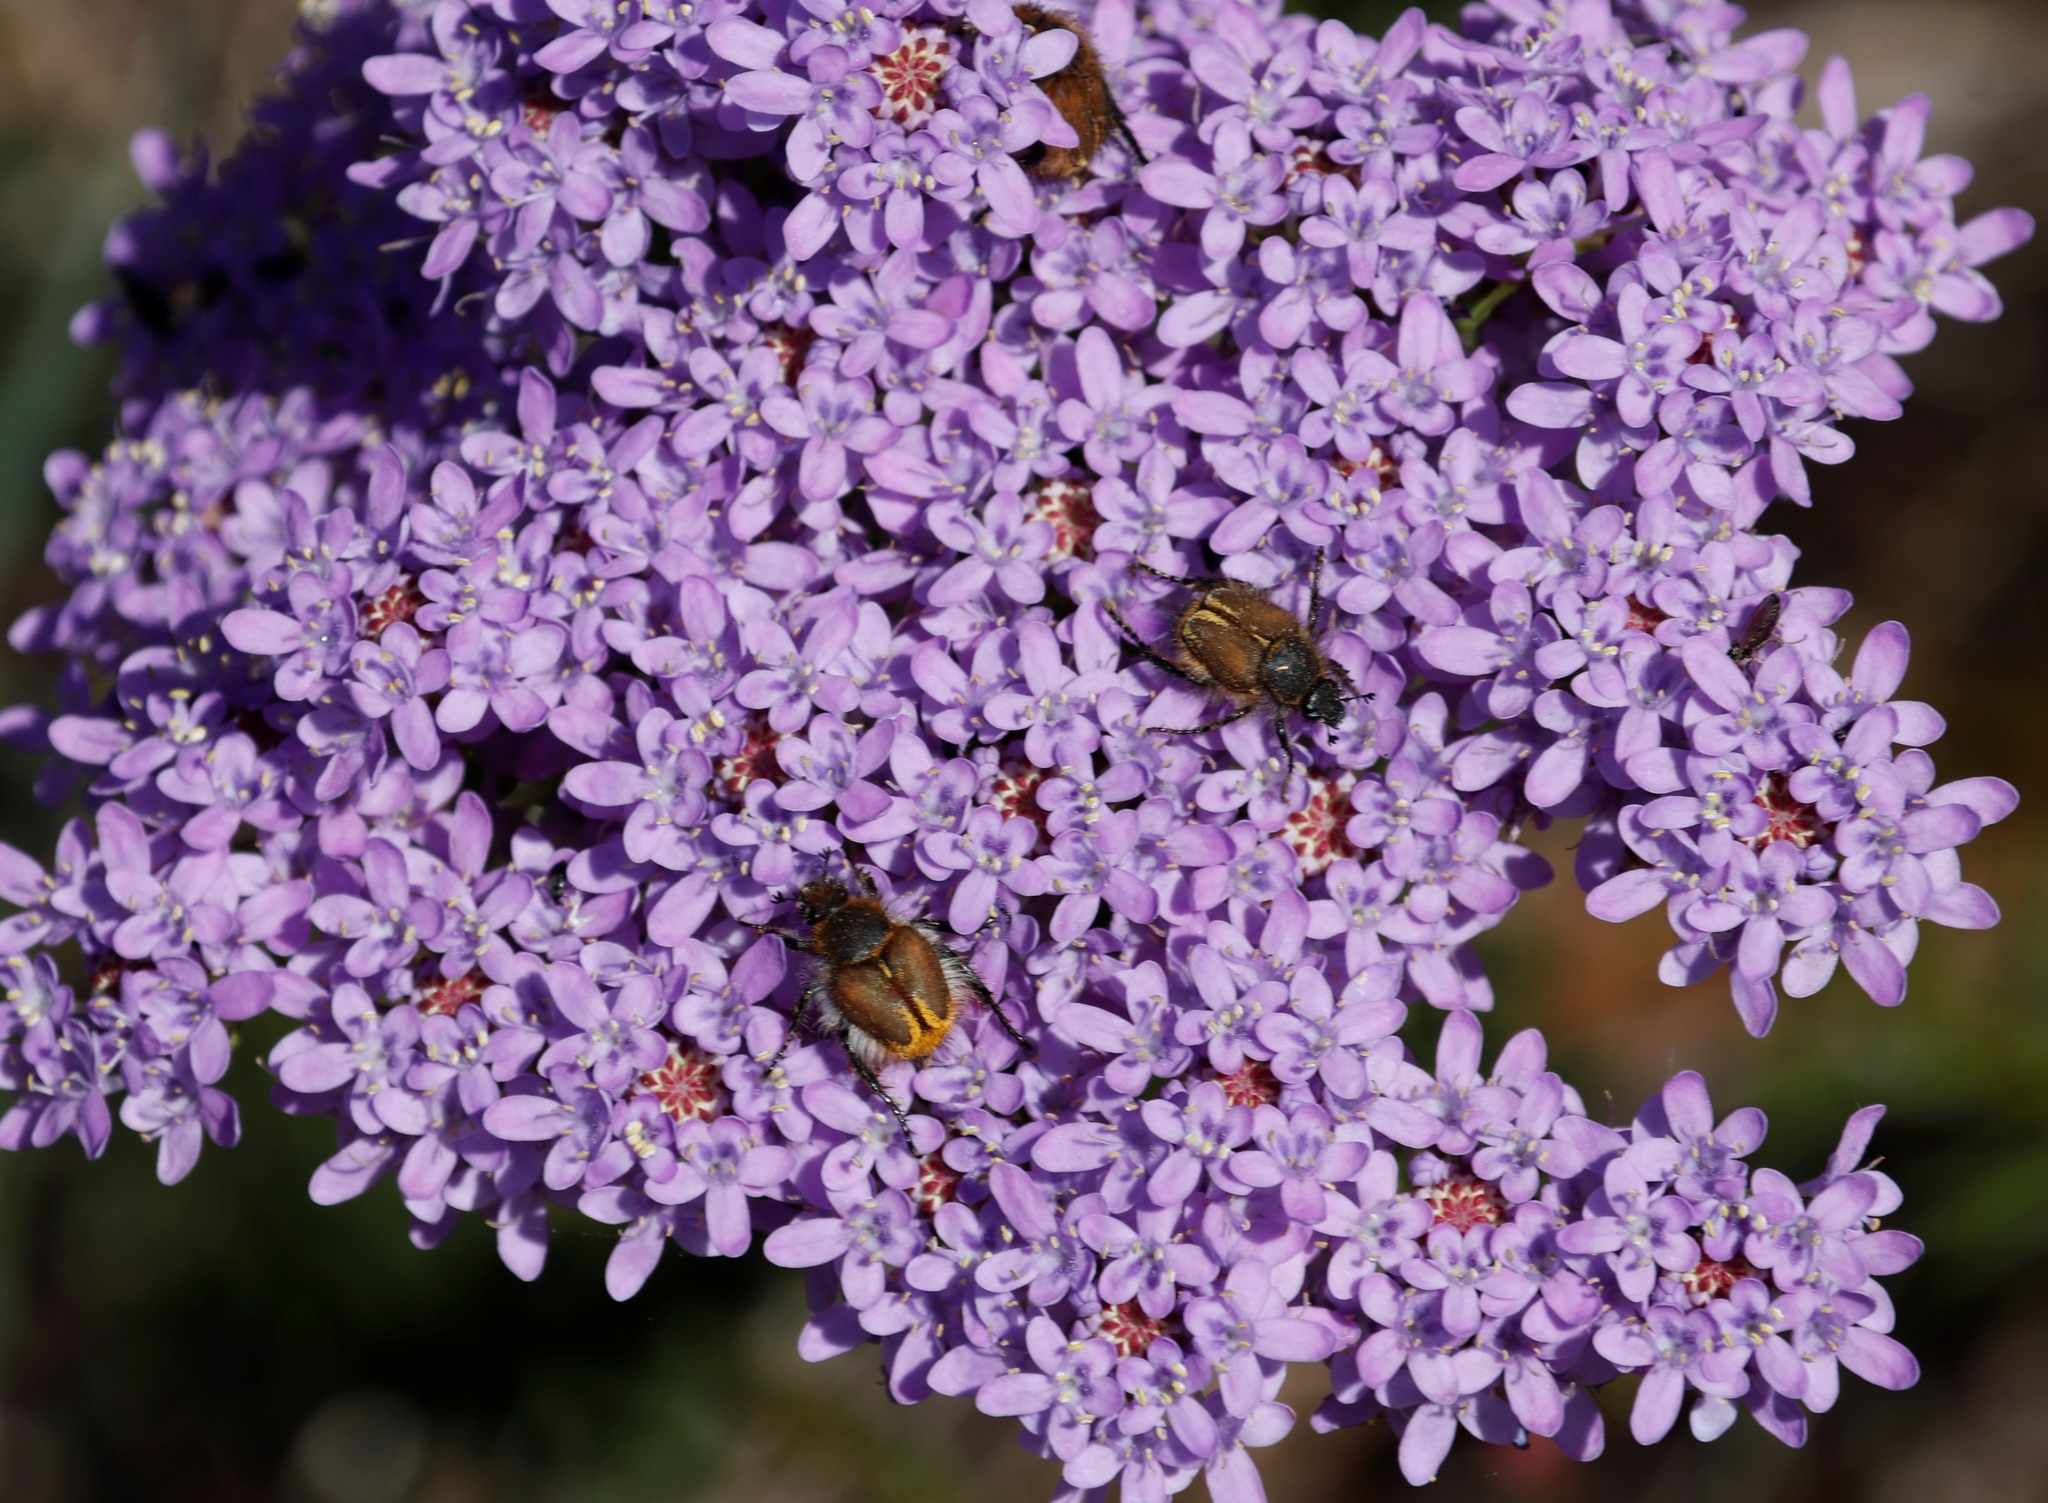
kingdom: Plantae
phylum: Tracheophyta
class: Magnoliopsida
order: Lamiales
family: Scrophulariaceae
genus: Pseudoselago
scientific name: Pseudoselago spuria
